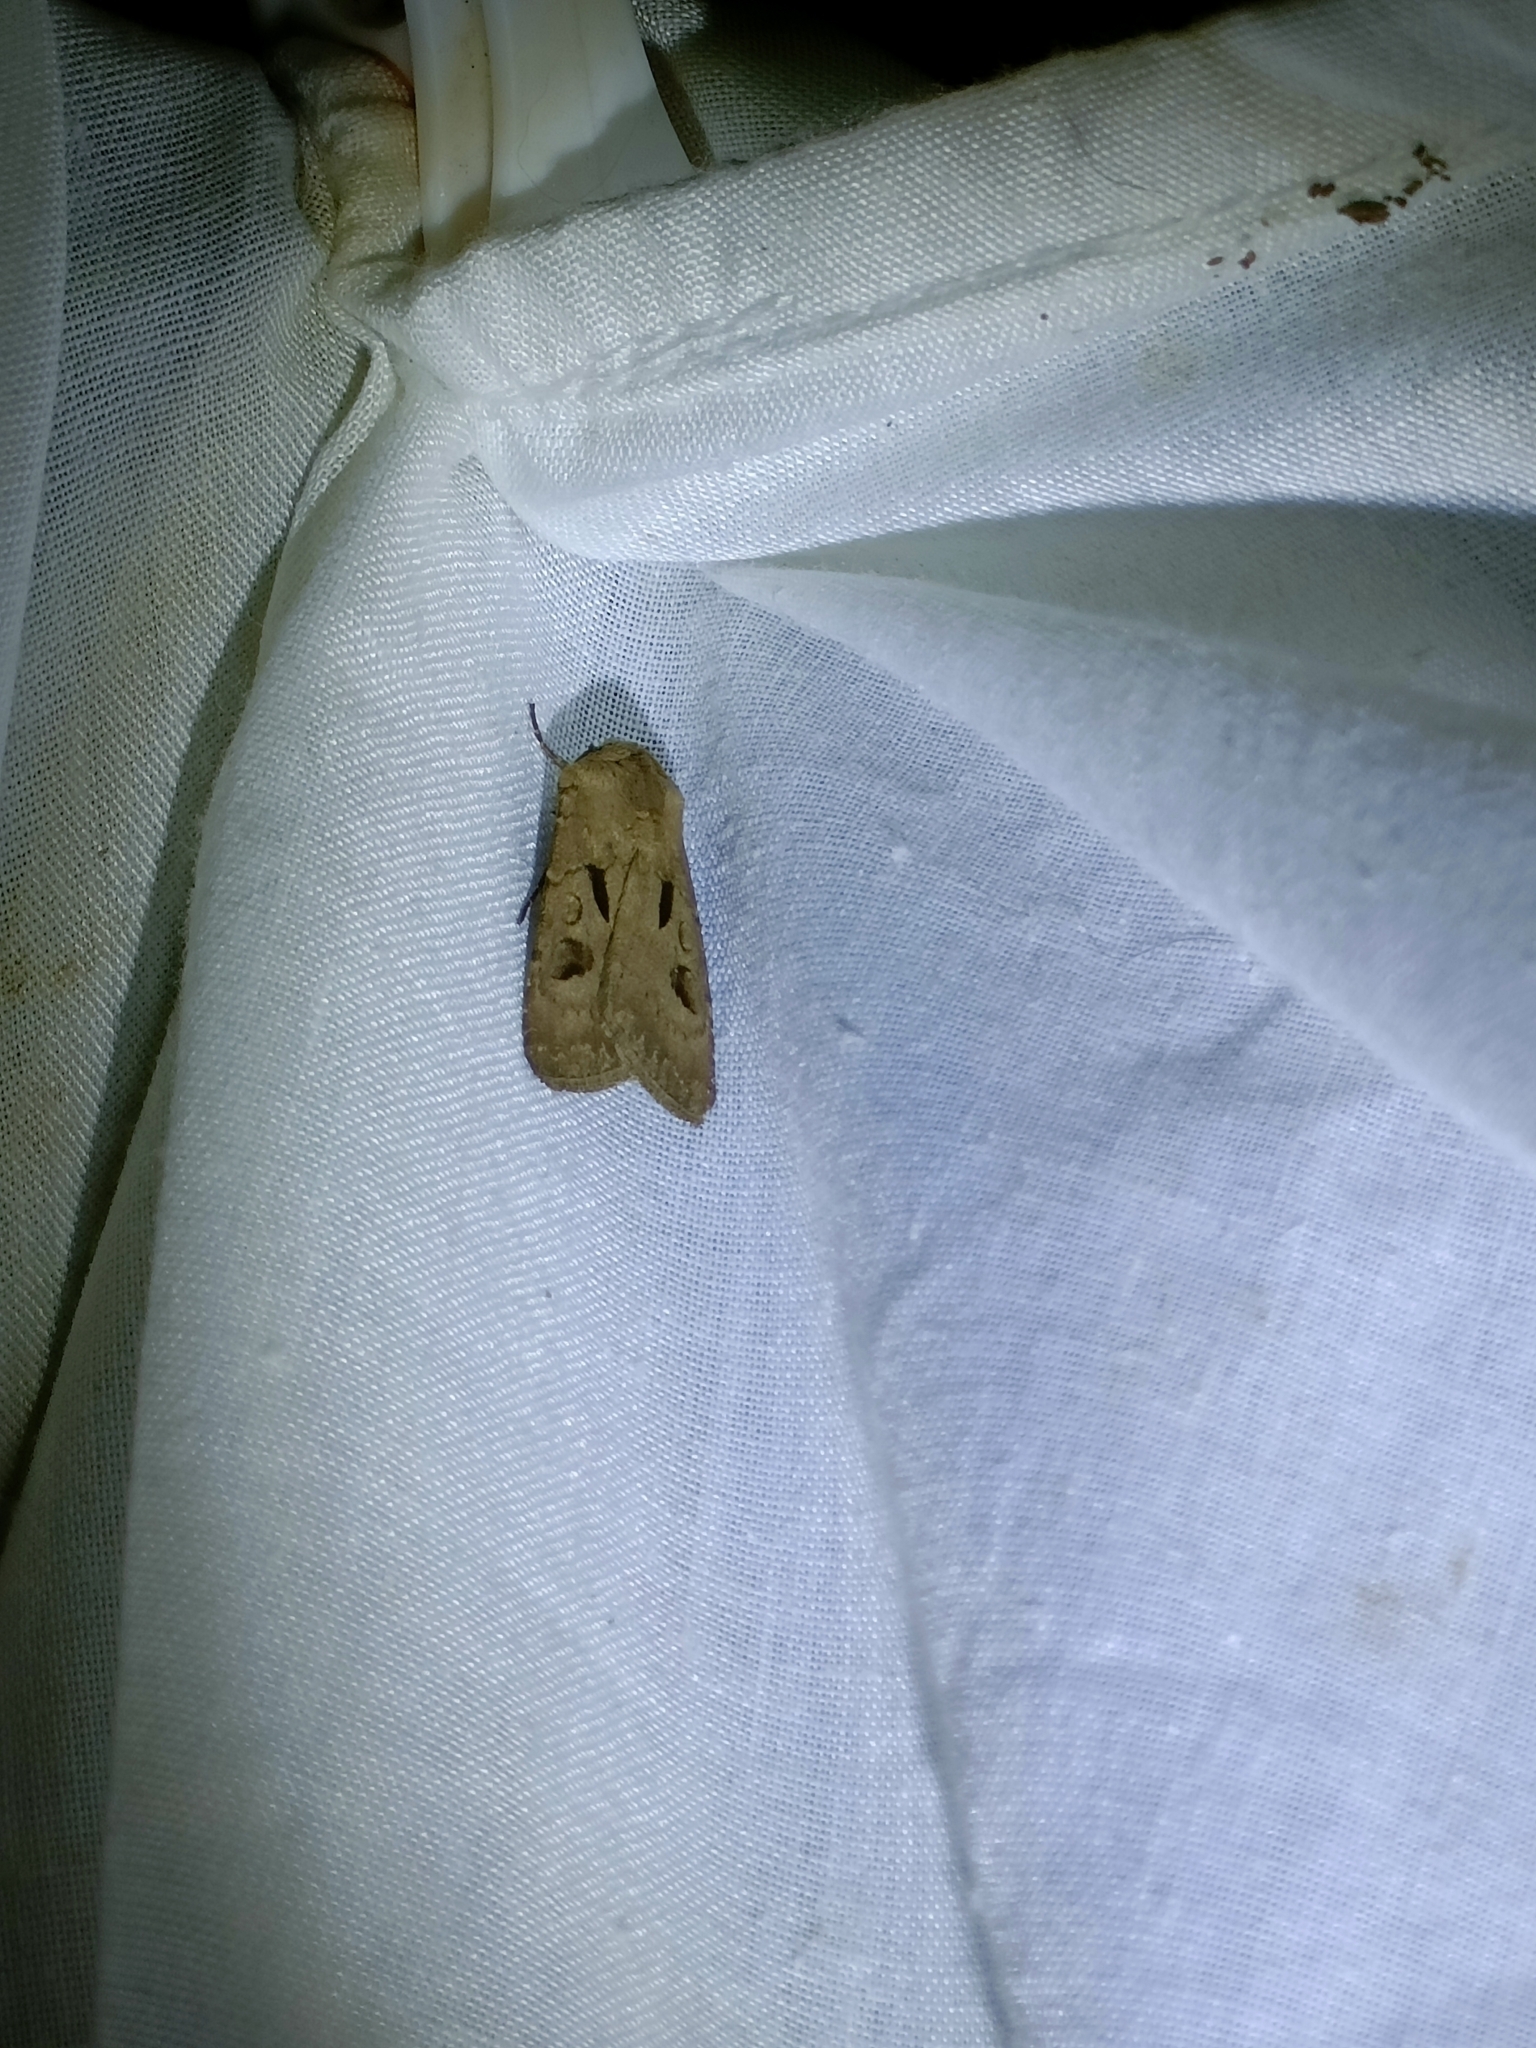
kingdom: Animalia
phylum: Arthropoda
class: Insecta
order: Lepidoptera
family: Noctuidae
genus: Agrotis
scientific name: Agrotis exclamationis
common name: Heart and dart
